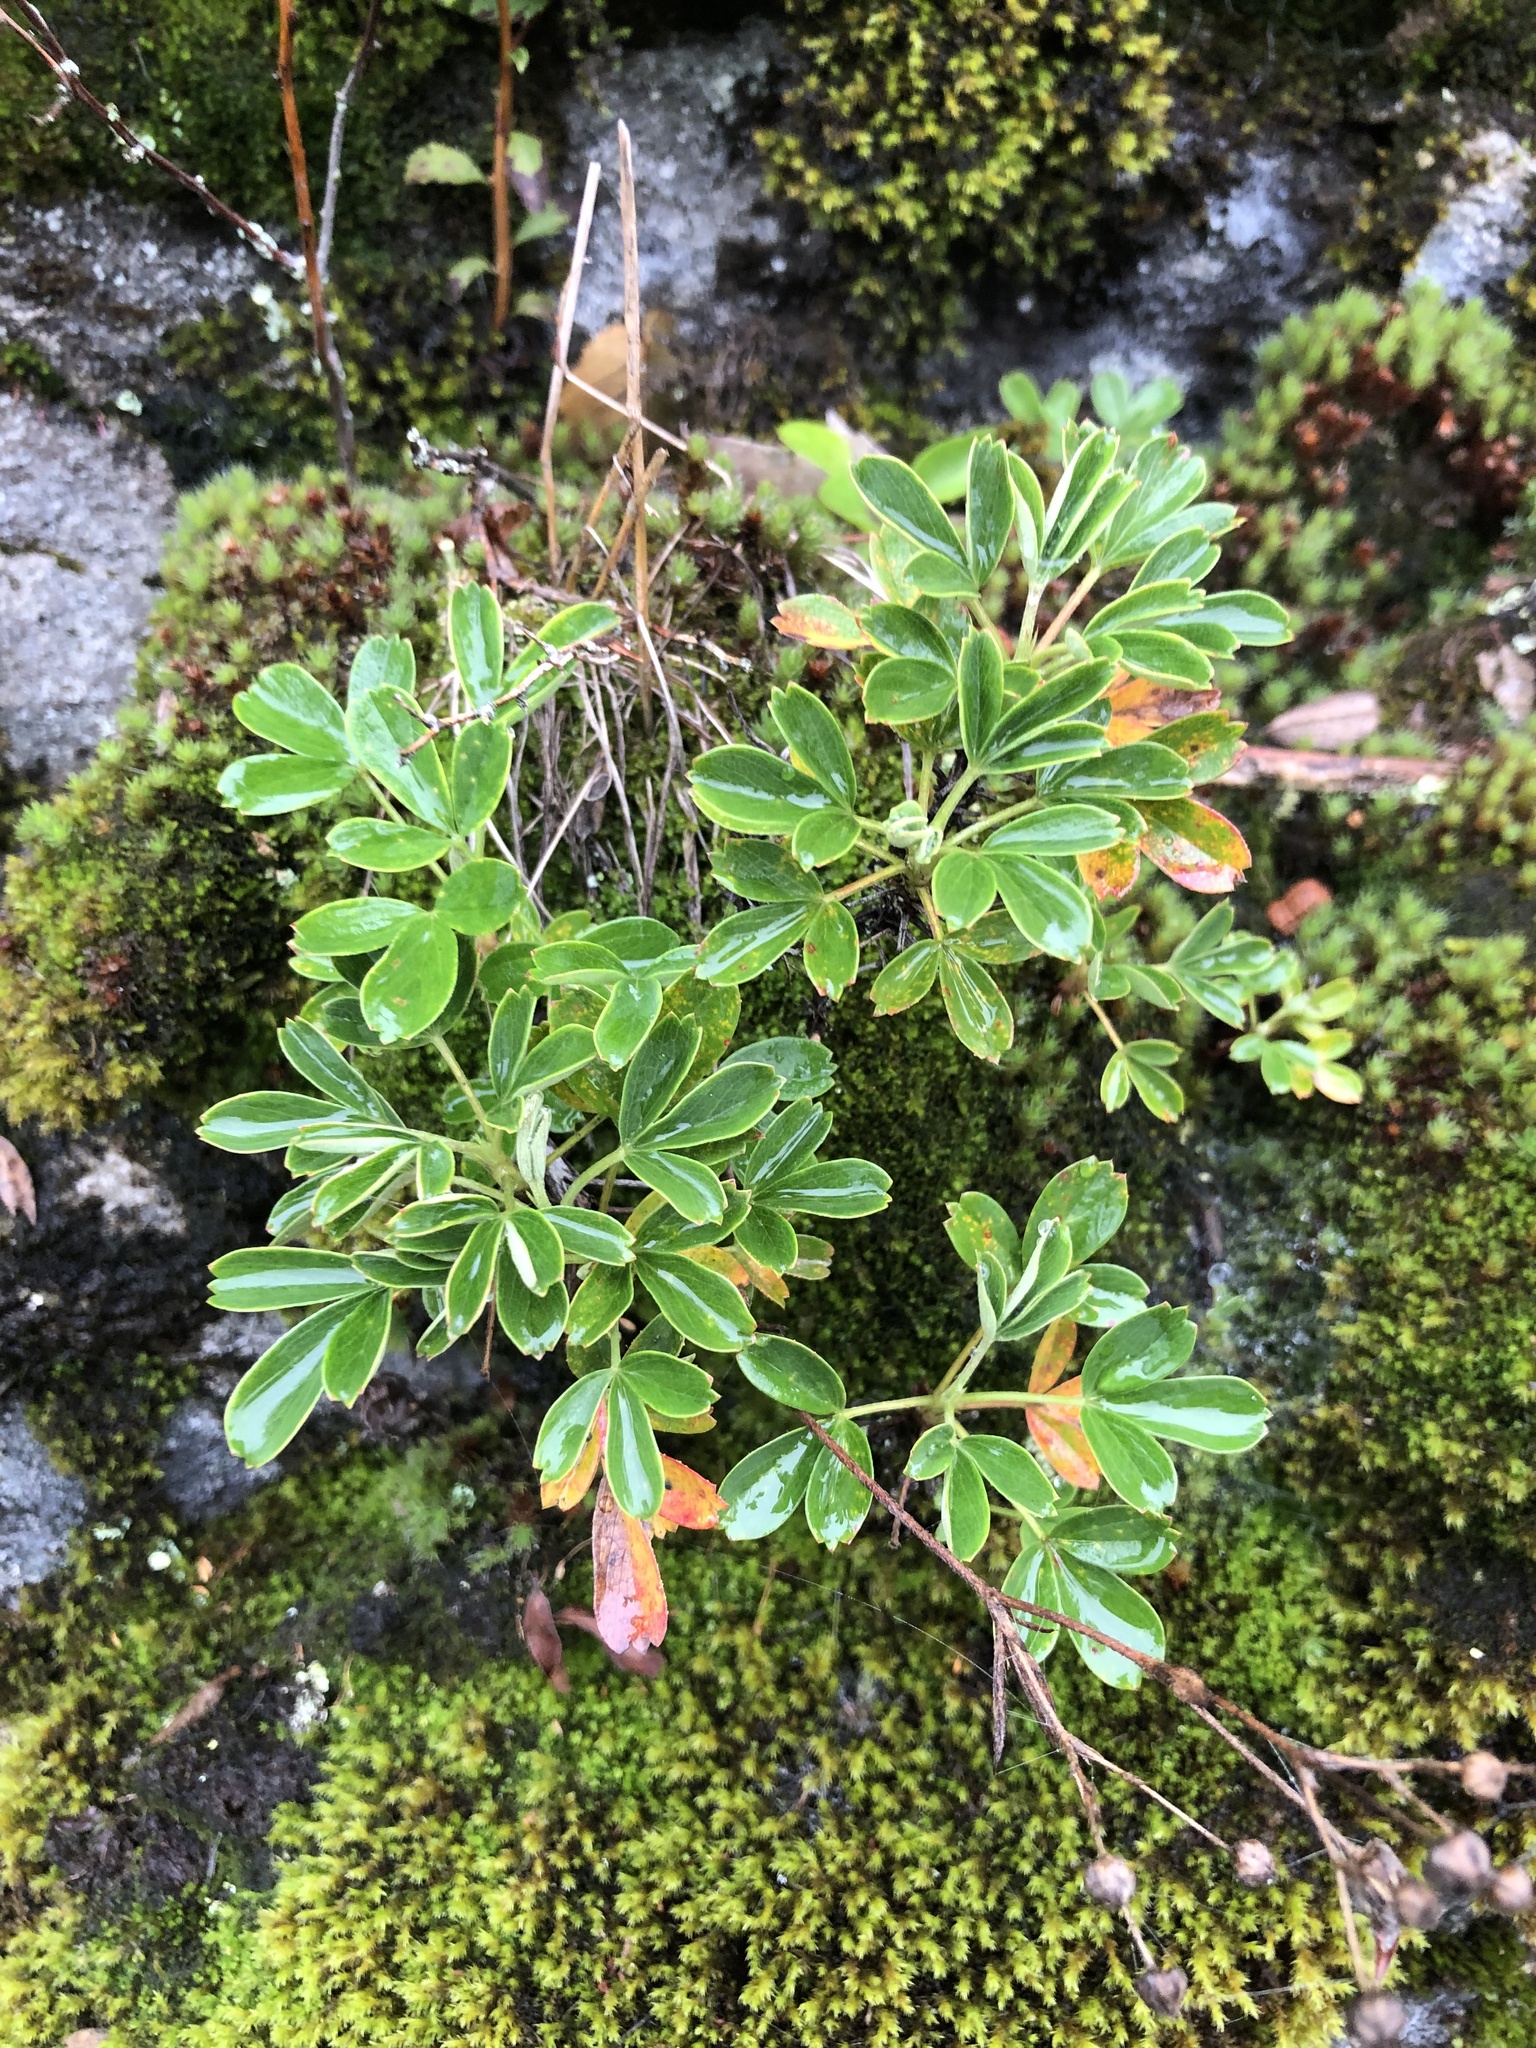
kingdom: Plantae
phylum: Tracheophyta
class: Magnoliopsida
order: Rosales
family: Rosaceae
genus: Sibbaldia
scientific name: Sibbaldia tridentata
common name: Three-toothed cinquefoil
